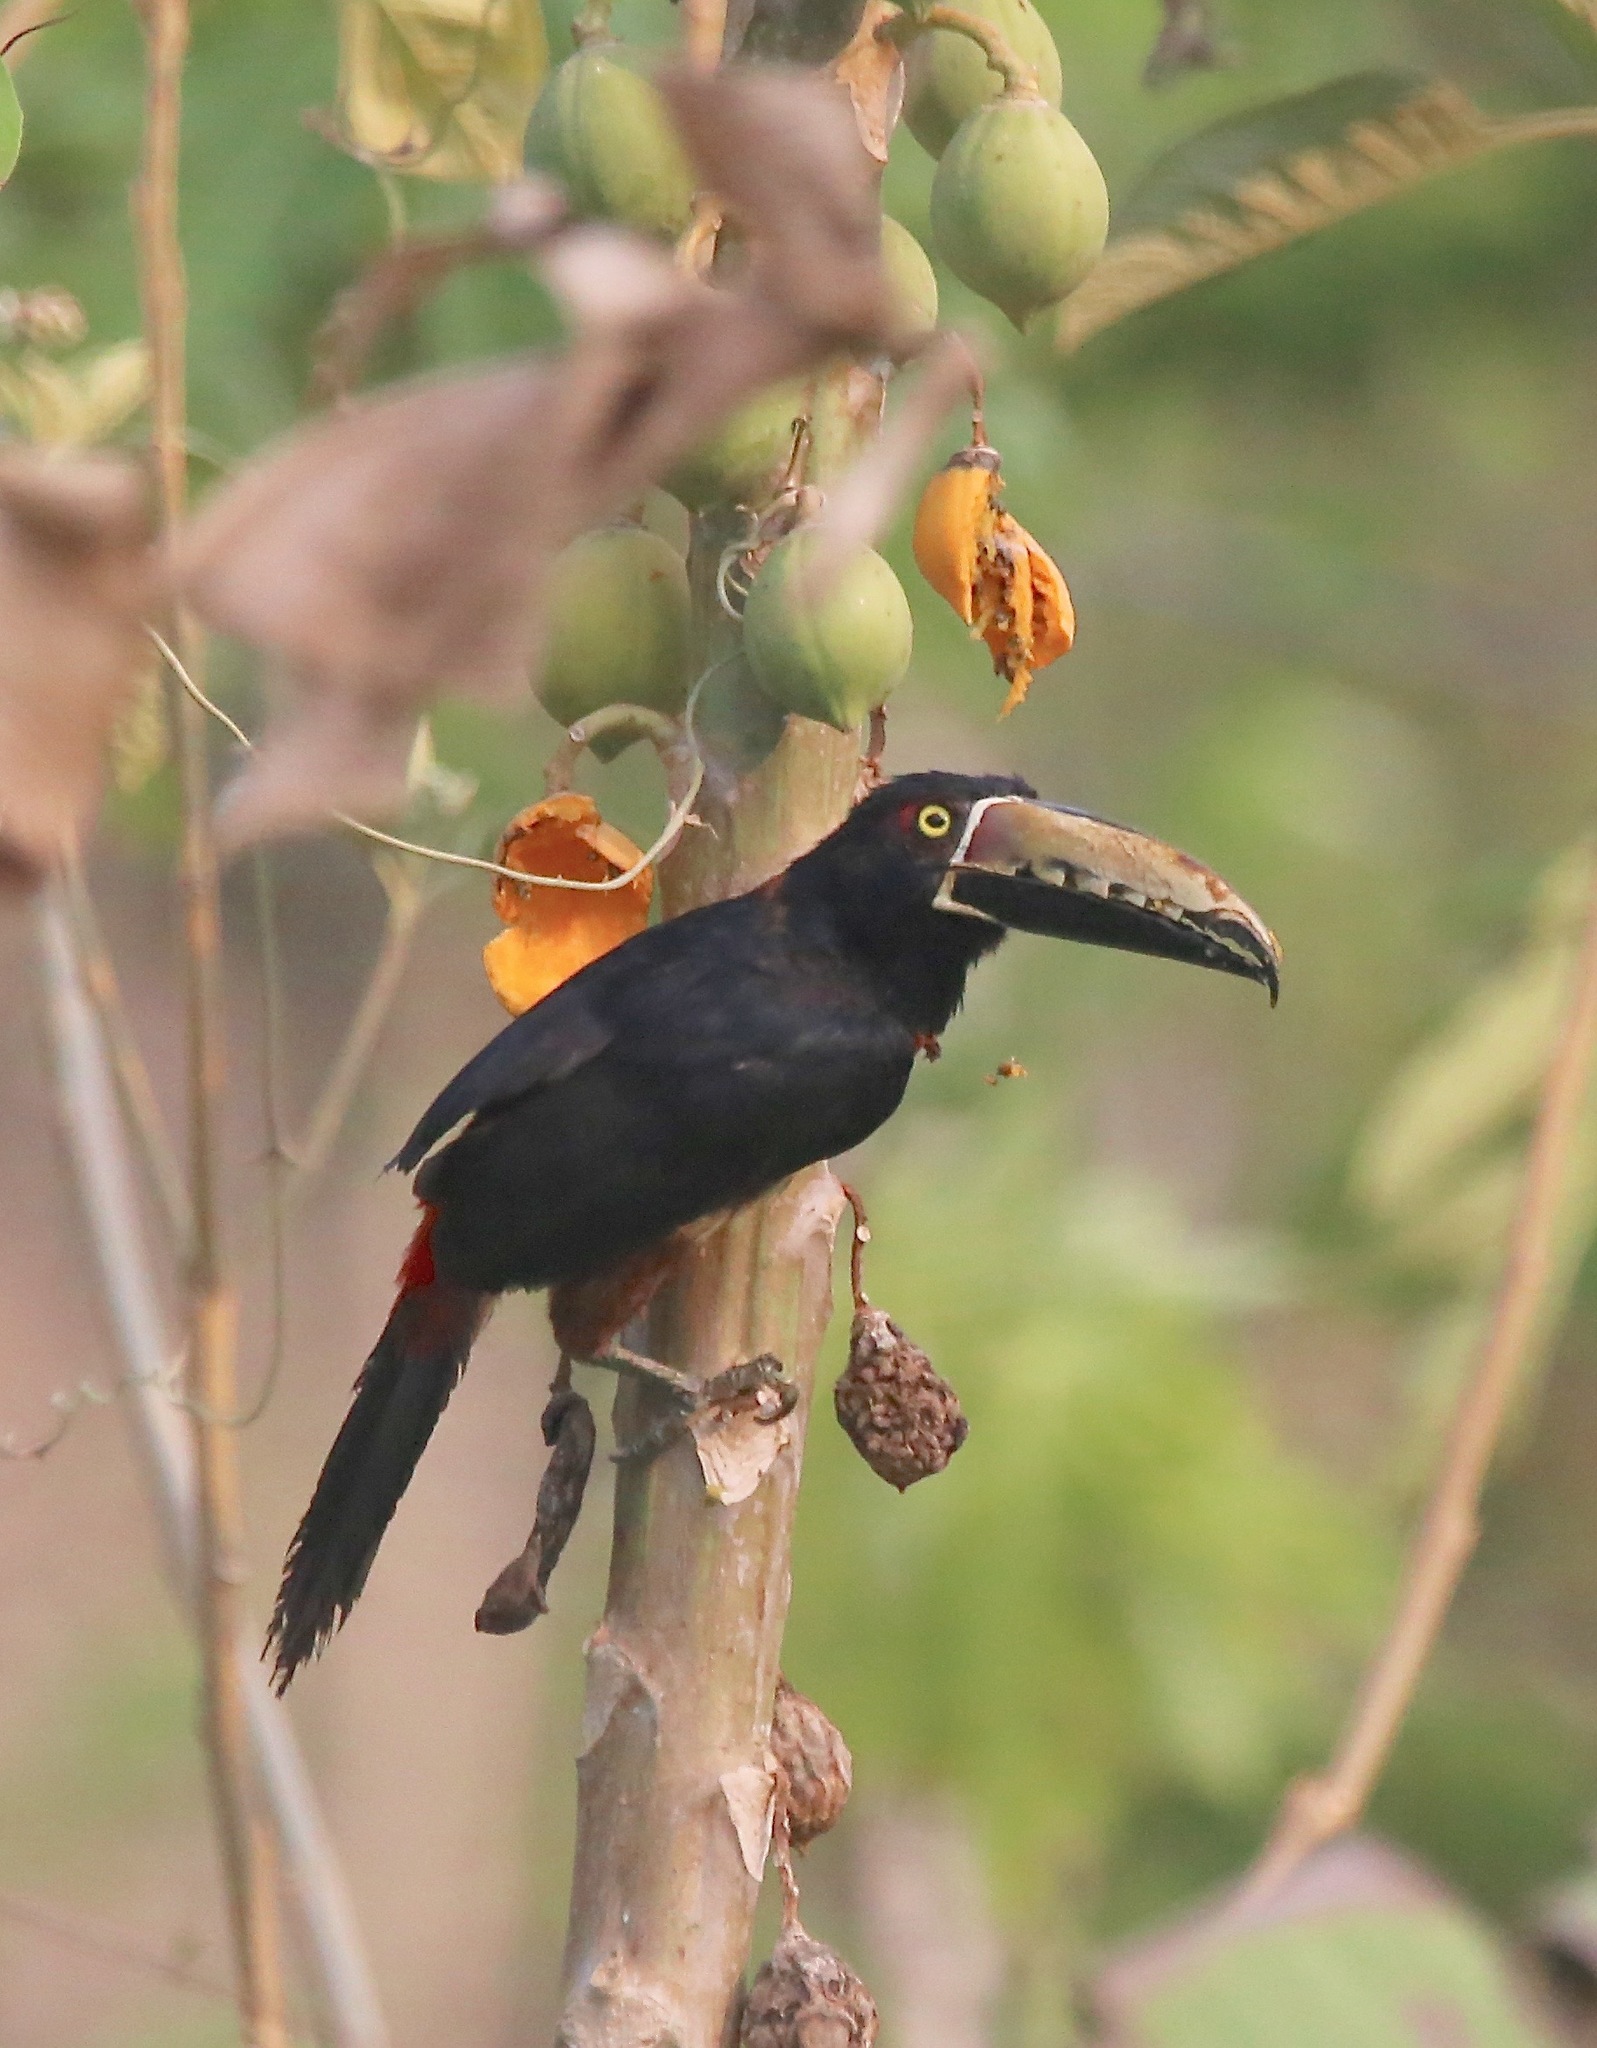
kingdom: Animalia
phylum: Chordata
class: Aves
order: Piciformes
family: Ramphastidae
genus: Pteroglossus
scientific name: Pteroglossus torquatus
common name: Collared aracari
